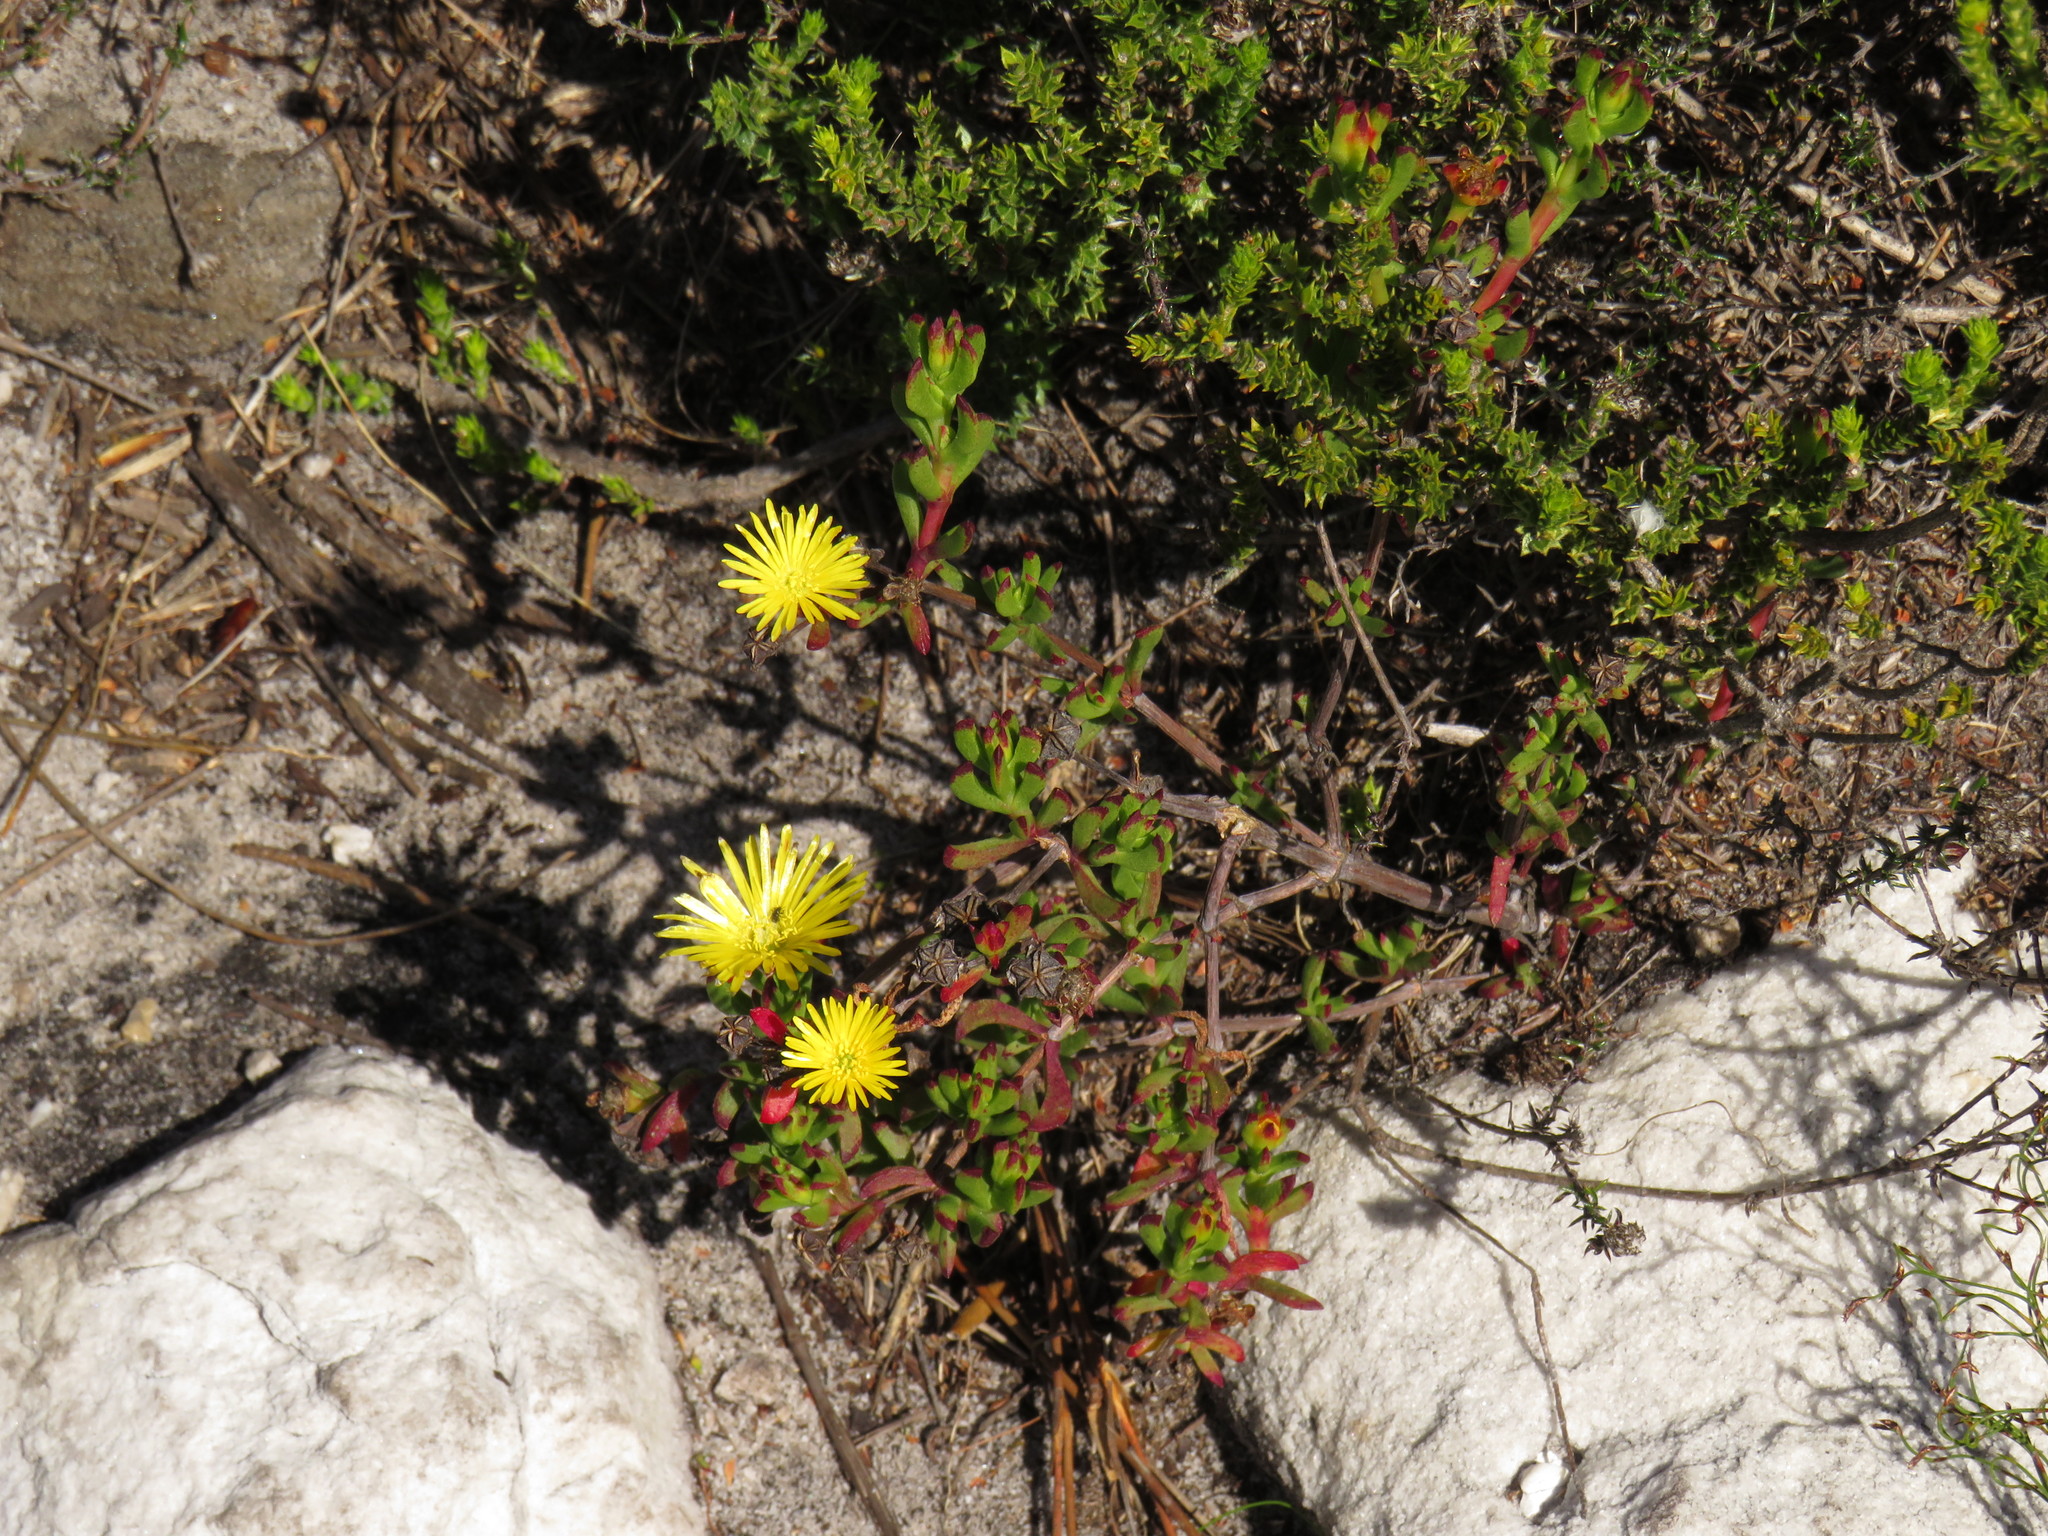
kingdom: Plantae
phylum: Tracheophyta
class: Magnoliopsida
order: Caryophyllales
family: Aizoaceae
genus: Lampranthus
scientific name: Lampranthus promontorii
